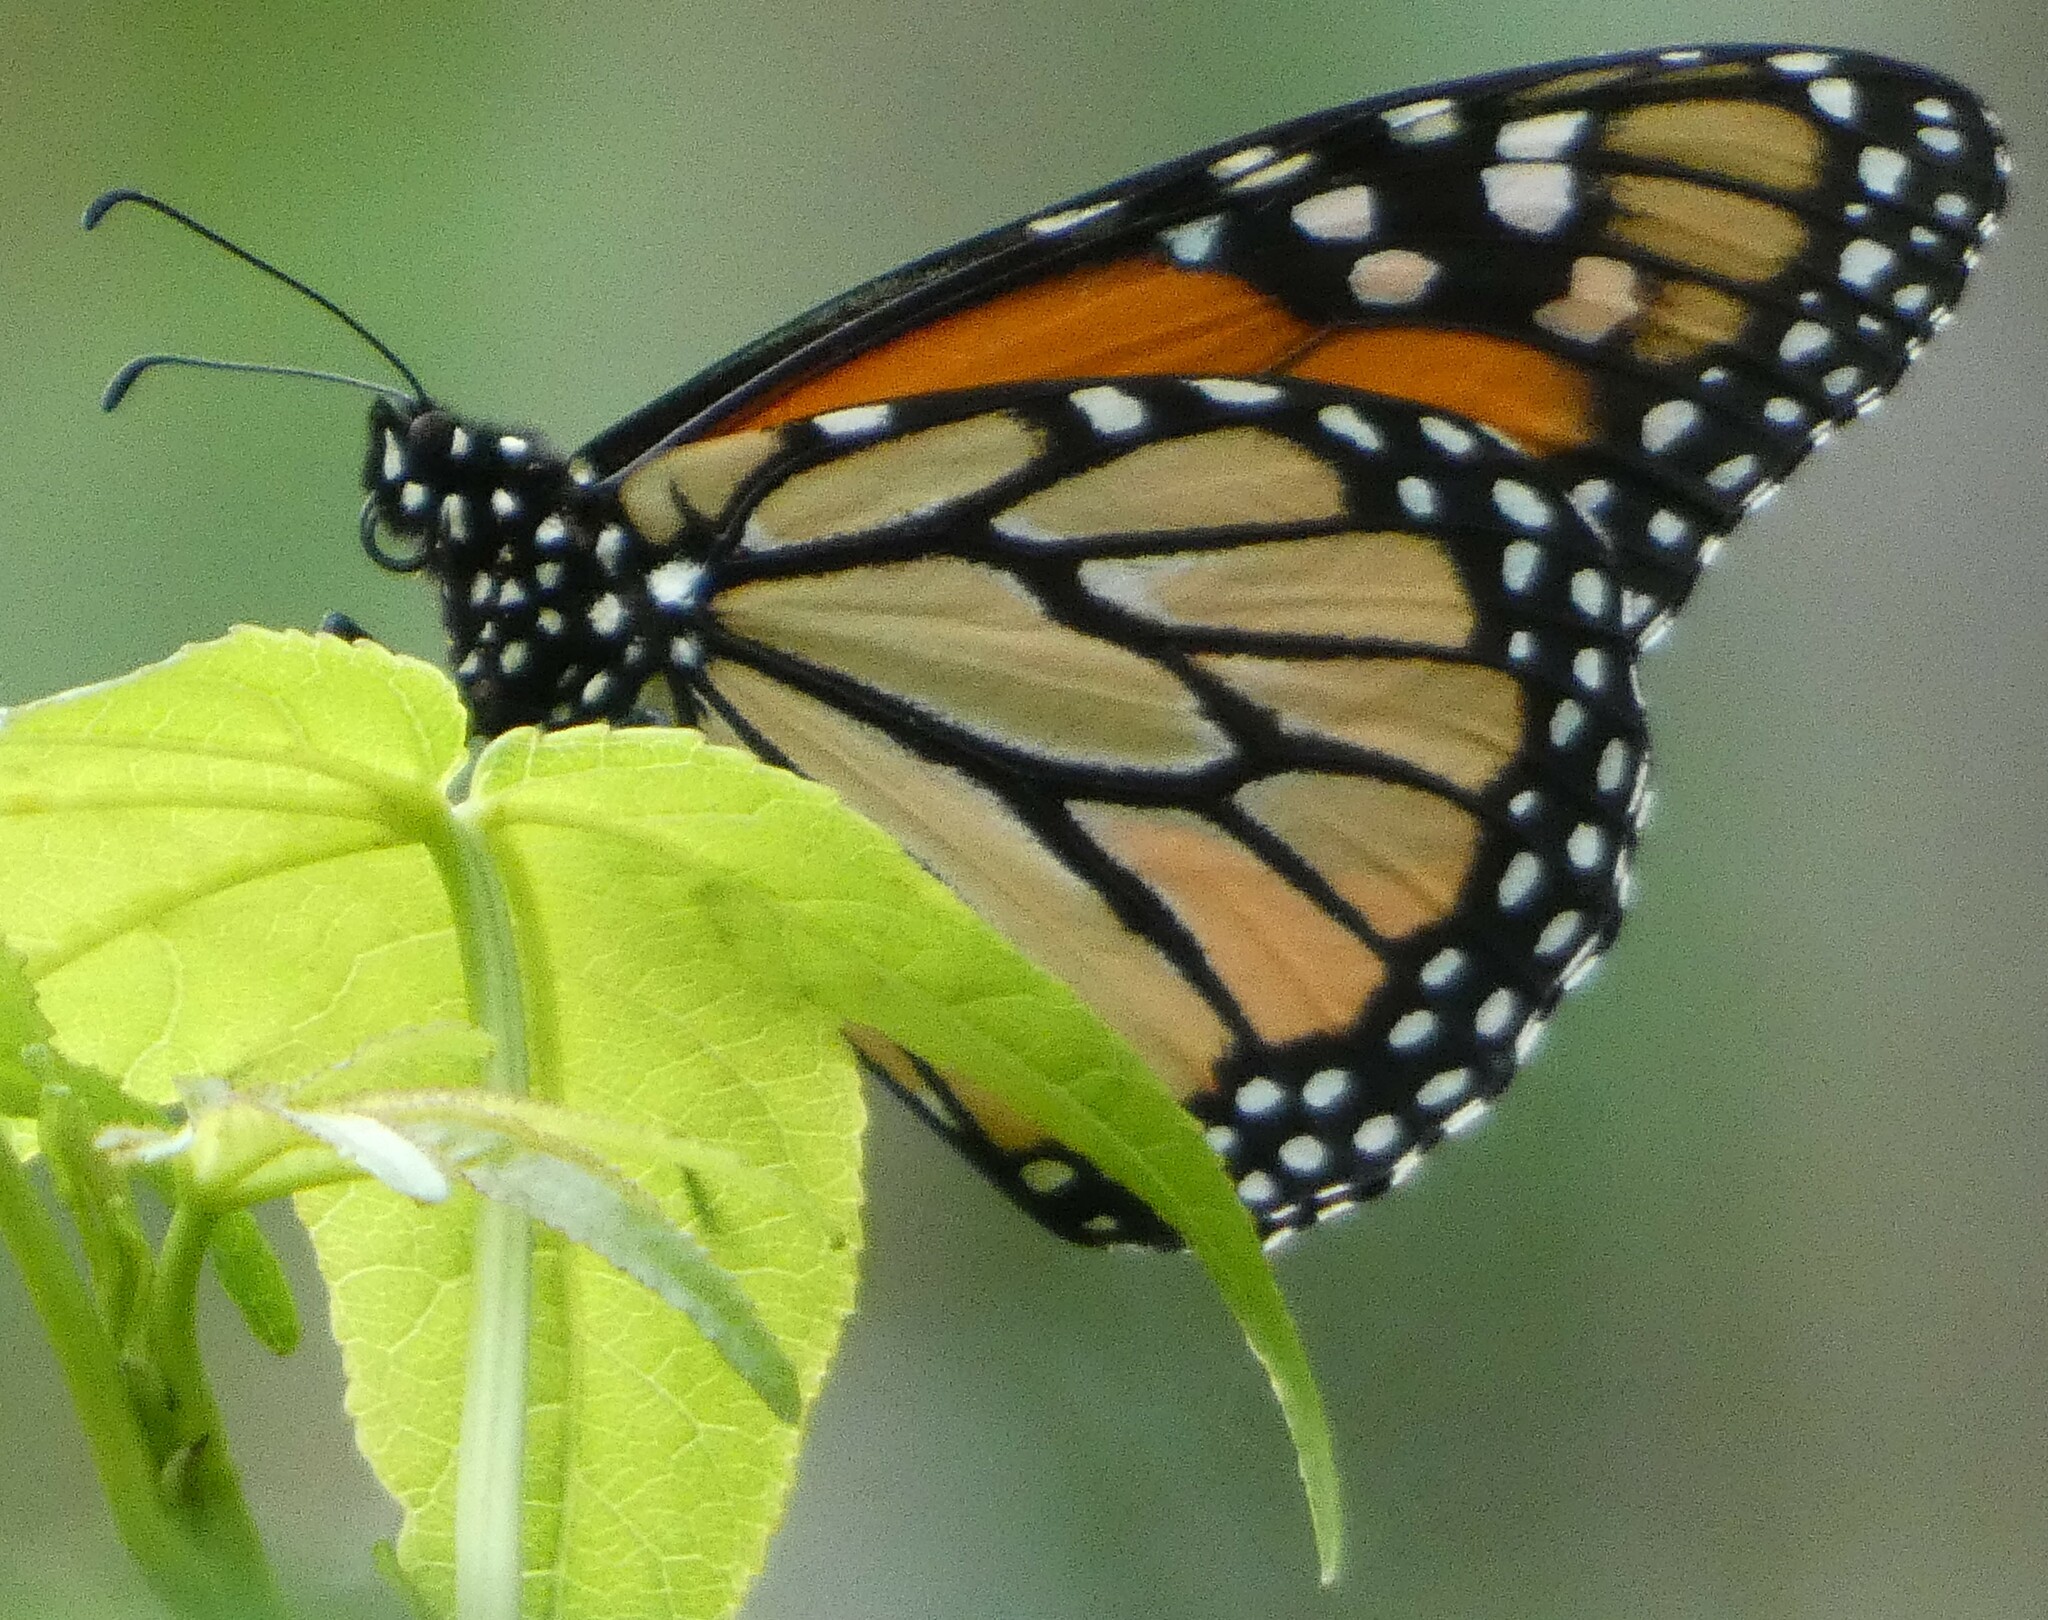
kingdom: Animalia
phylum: Arthropoda
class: Insecta
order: Lepidoptera
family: Nymphalidae
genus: Danaus
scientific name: Danaus plexippus
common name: Monarch
